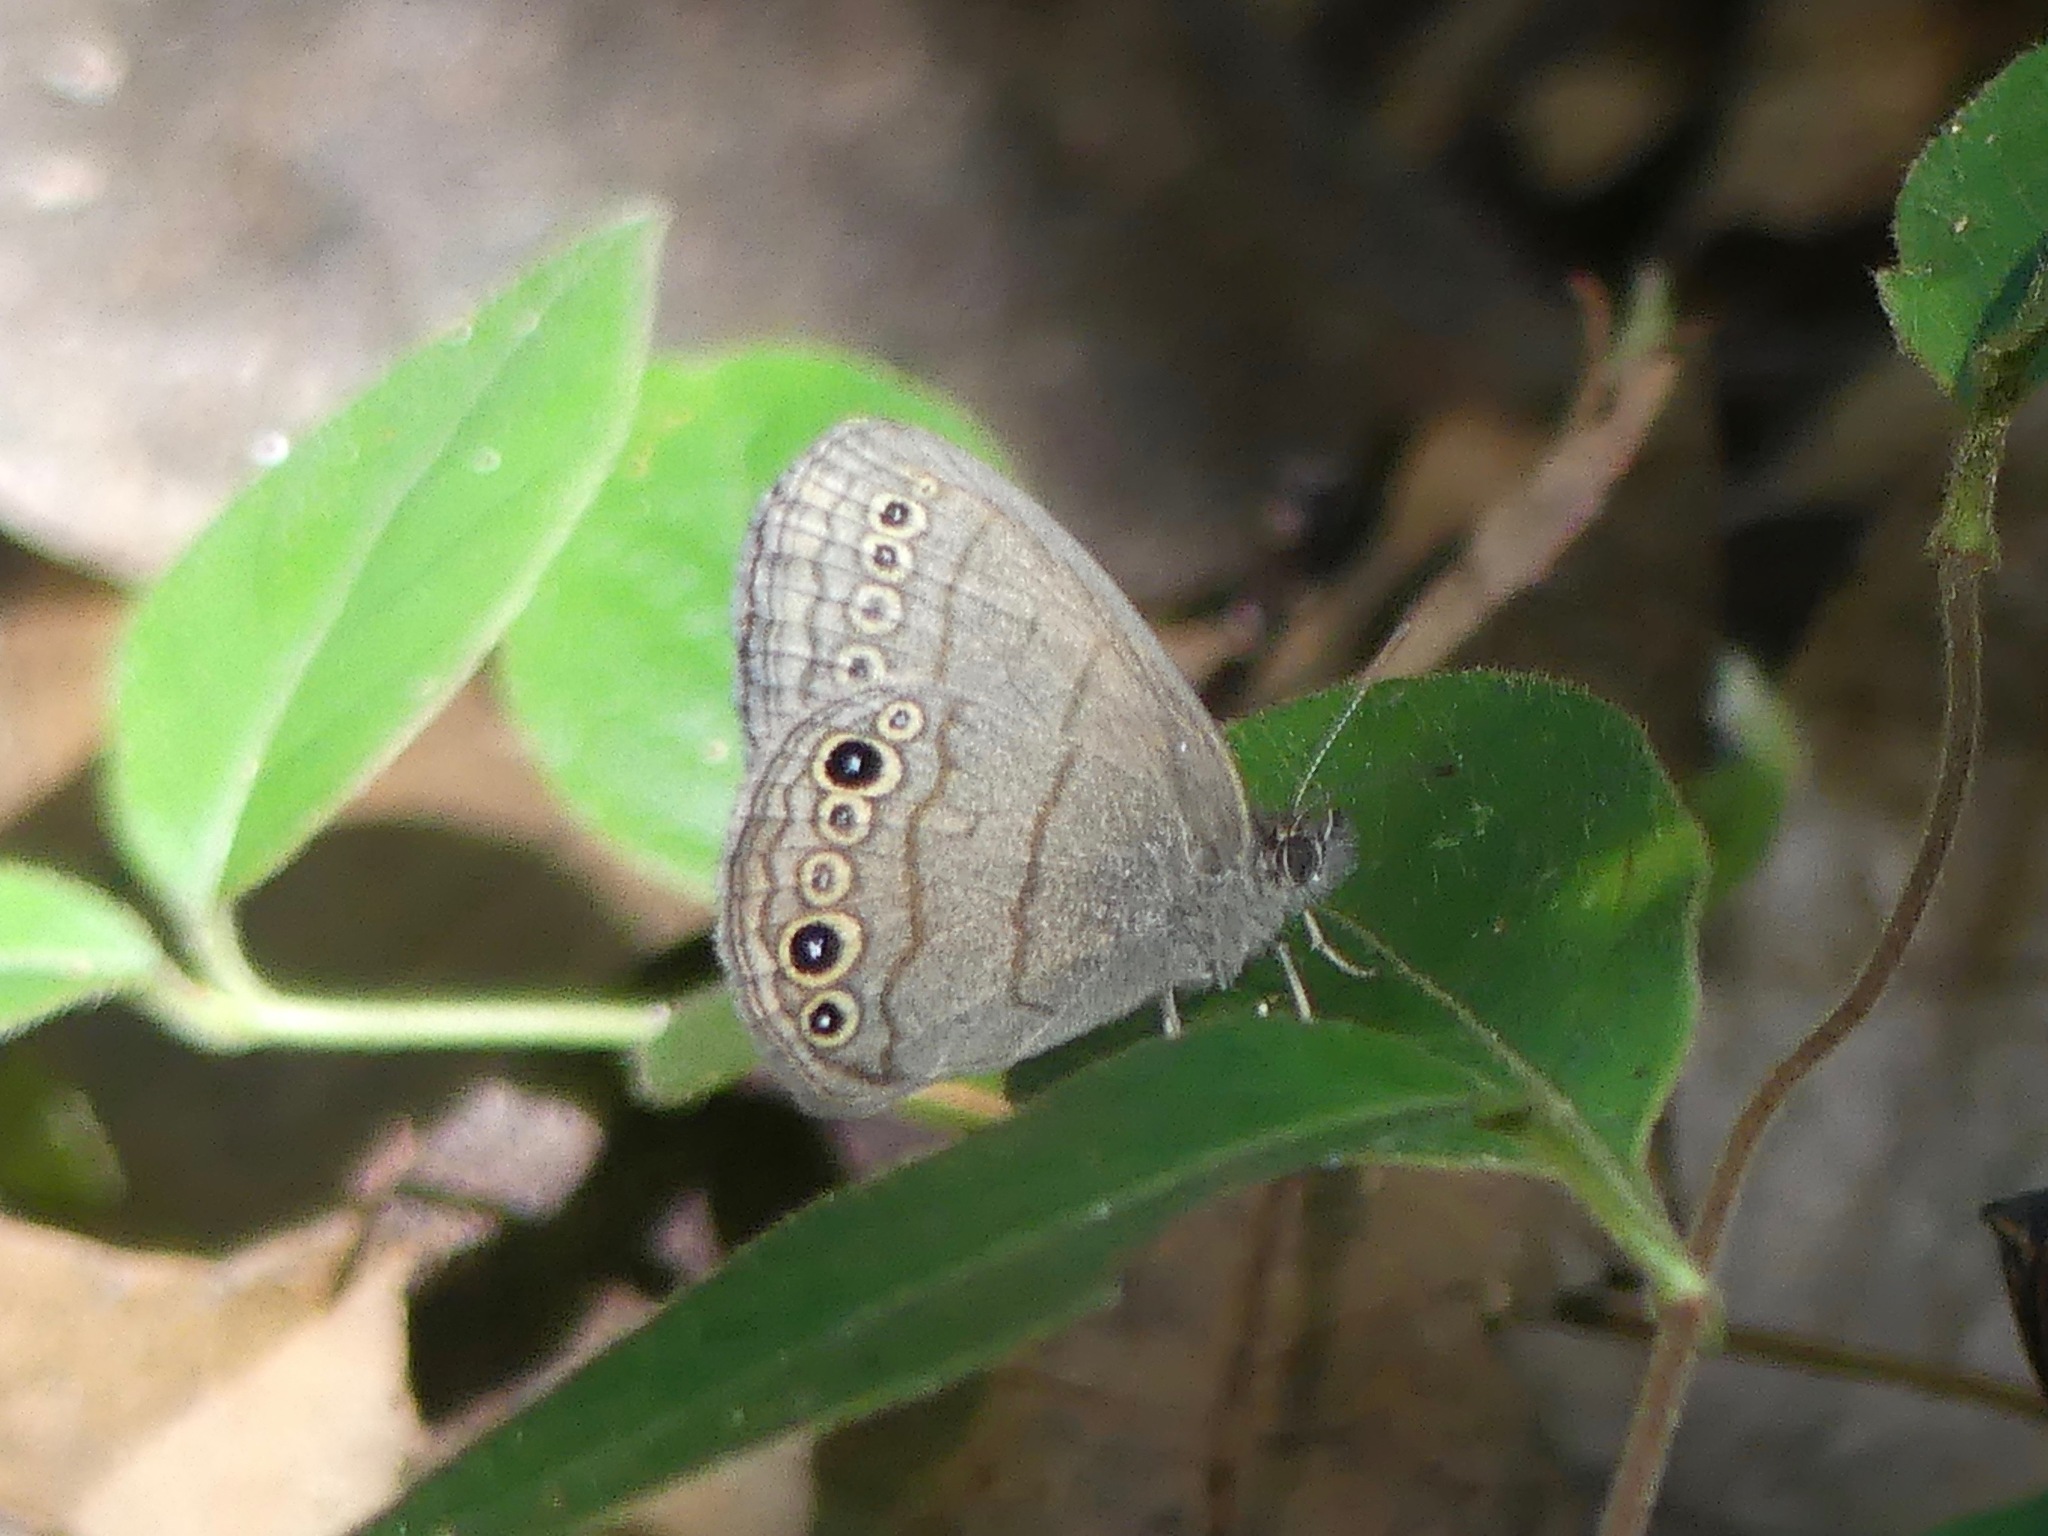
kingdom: Animalia
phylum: Arthropoda
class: Insecta
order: Lepidoptera
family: Nymphalidae
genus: Hermeuptychia
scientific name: Hermeuptychia hermes
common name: Hermes satyr
